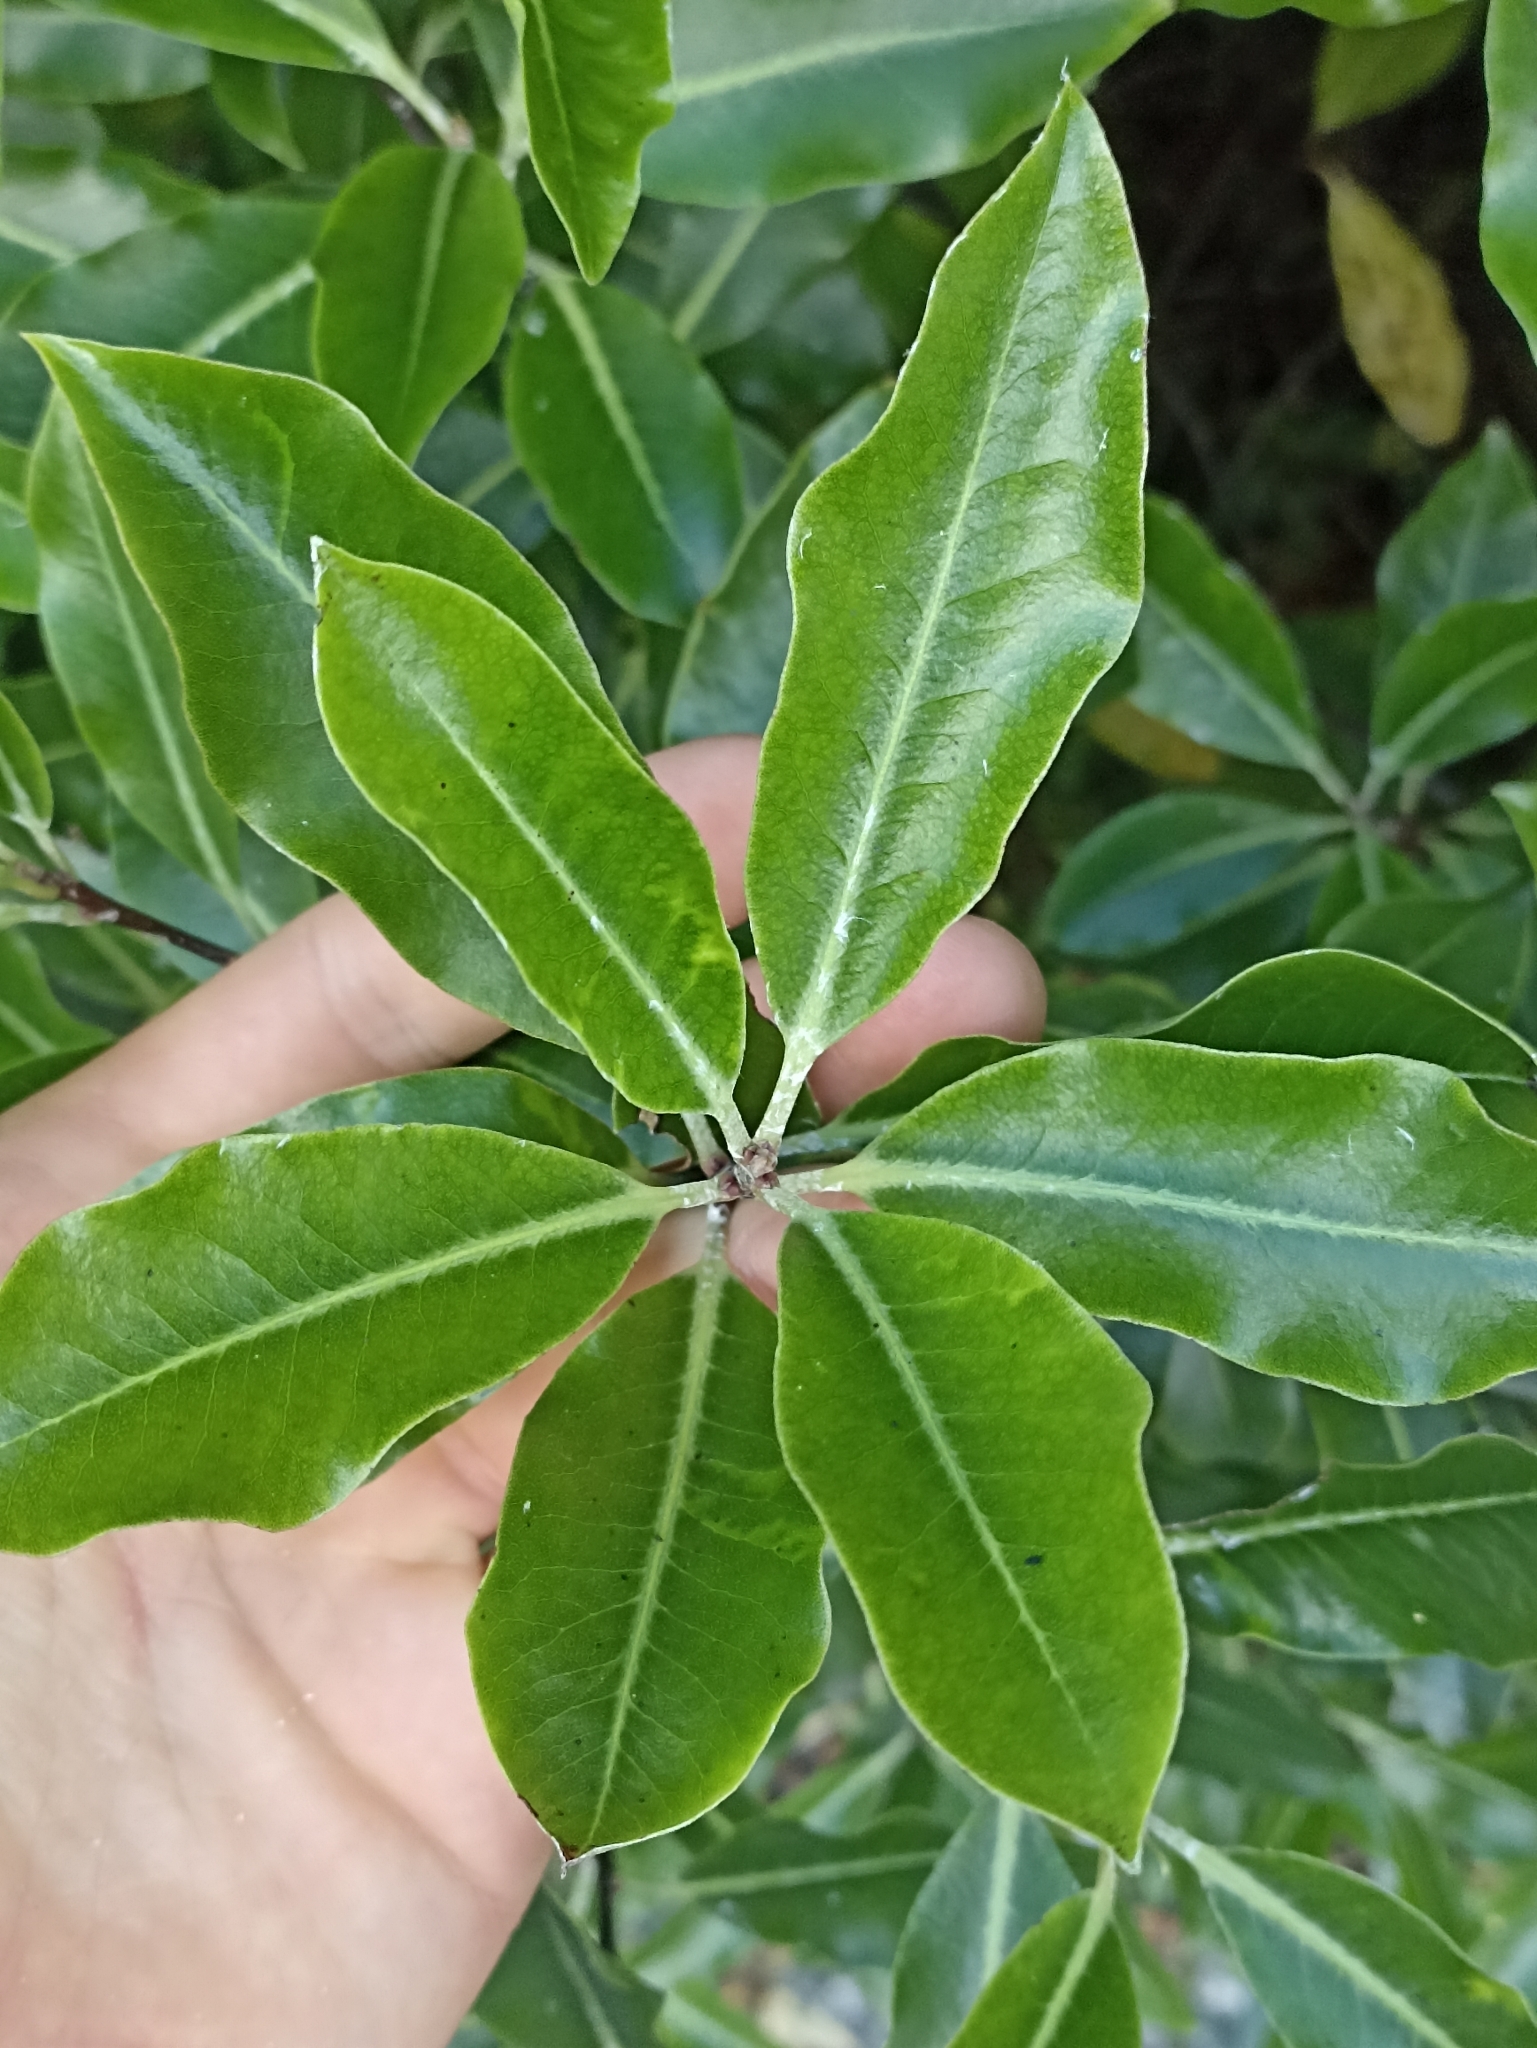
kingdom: Plantae
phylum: Tracheophyta
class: Magnoliopsida
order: Apiales
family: Pittosporaceae
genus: Pittosporum
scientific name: Pittosporum colensoi
